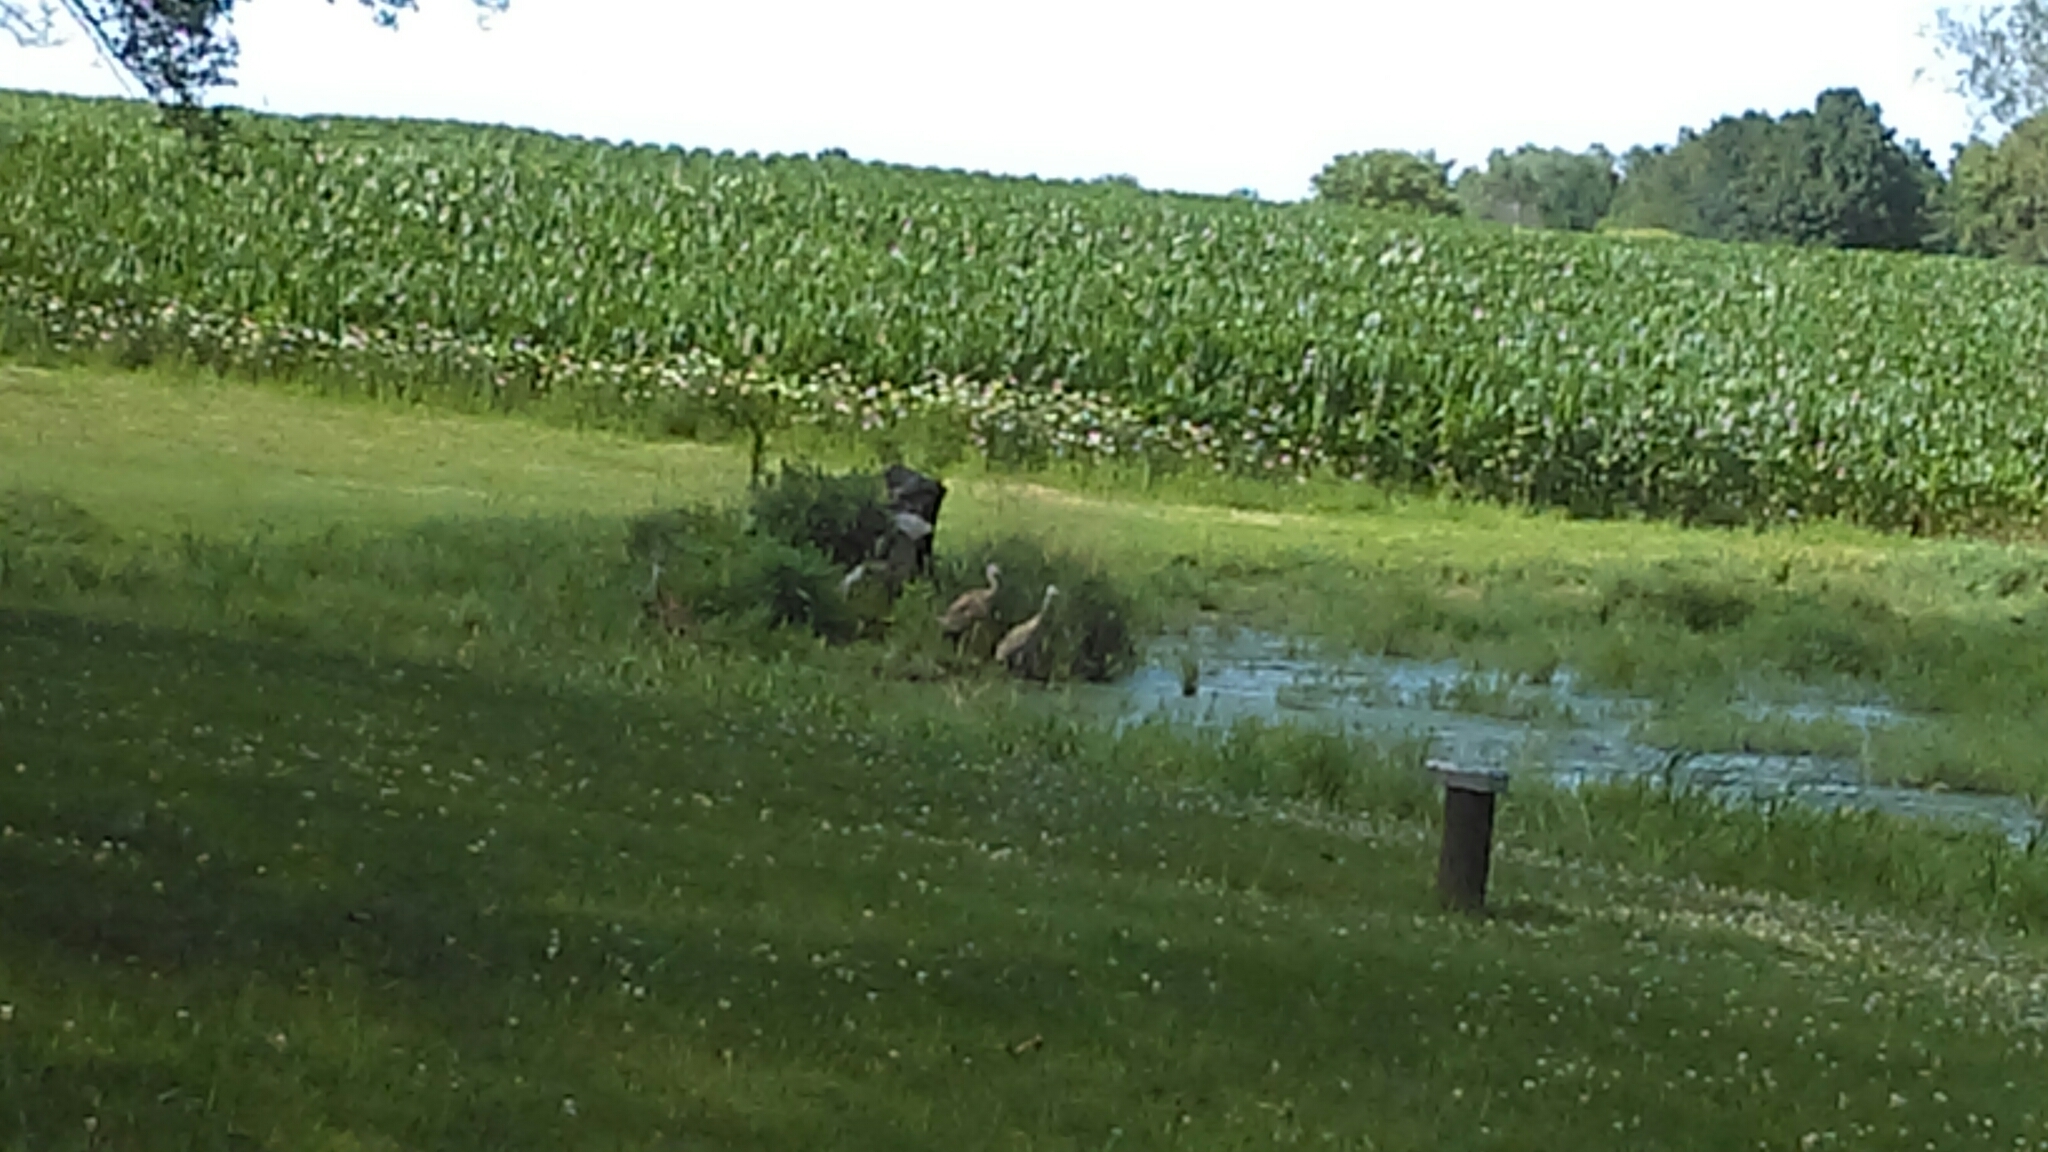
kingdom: Animalia
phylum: Chordata
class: Aves
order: Gruiformes
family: Gruidae
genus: Grus
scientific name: Grus canadensis
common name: Sandhill crane
